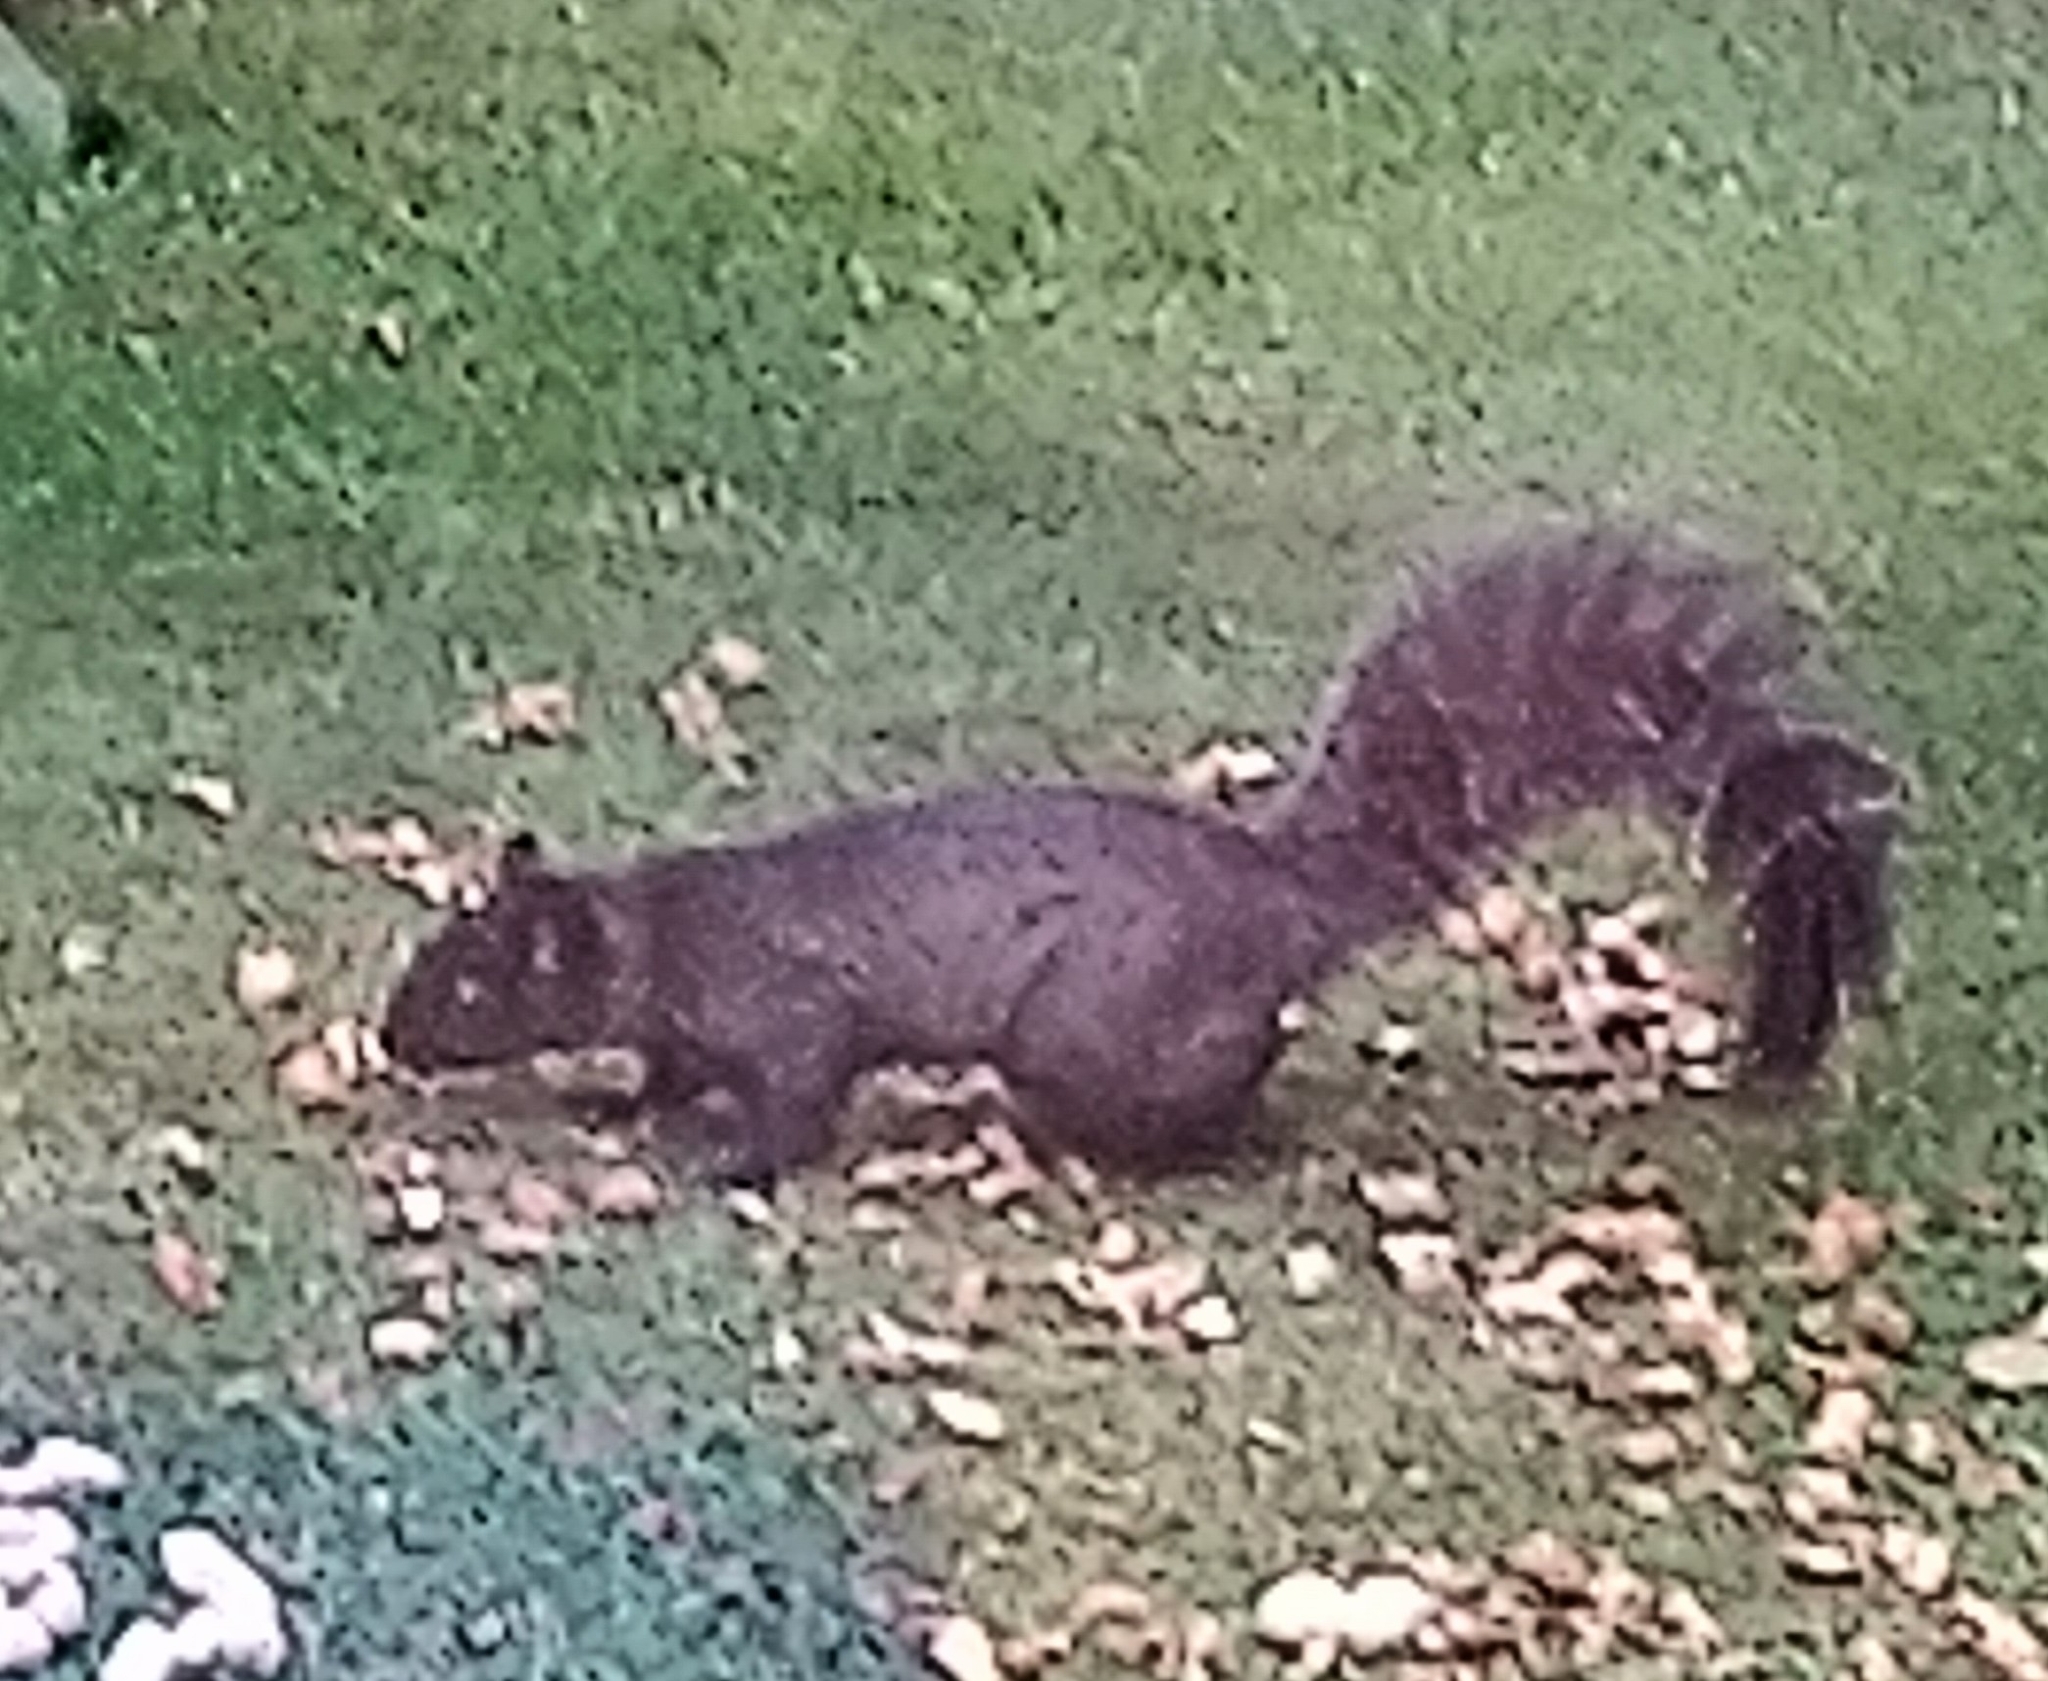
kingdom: Animalia
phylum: Chordata
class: Mammalia
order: Rodentia
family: Sciuridae
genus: Sciurus
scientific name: Sciurus aureogaster
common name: Red-bellied squirrel
